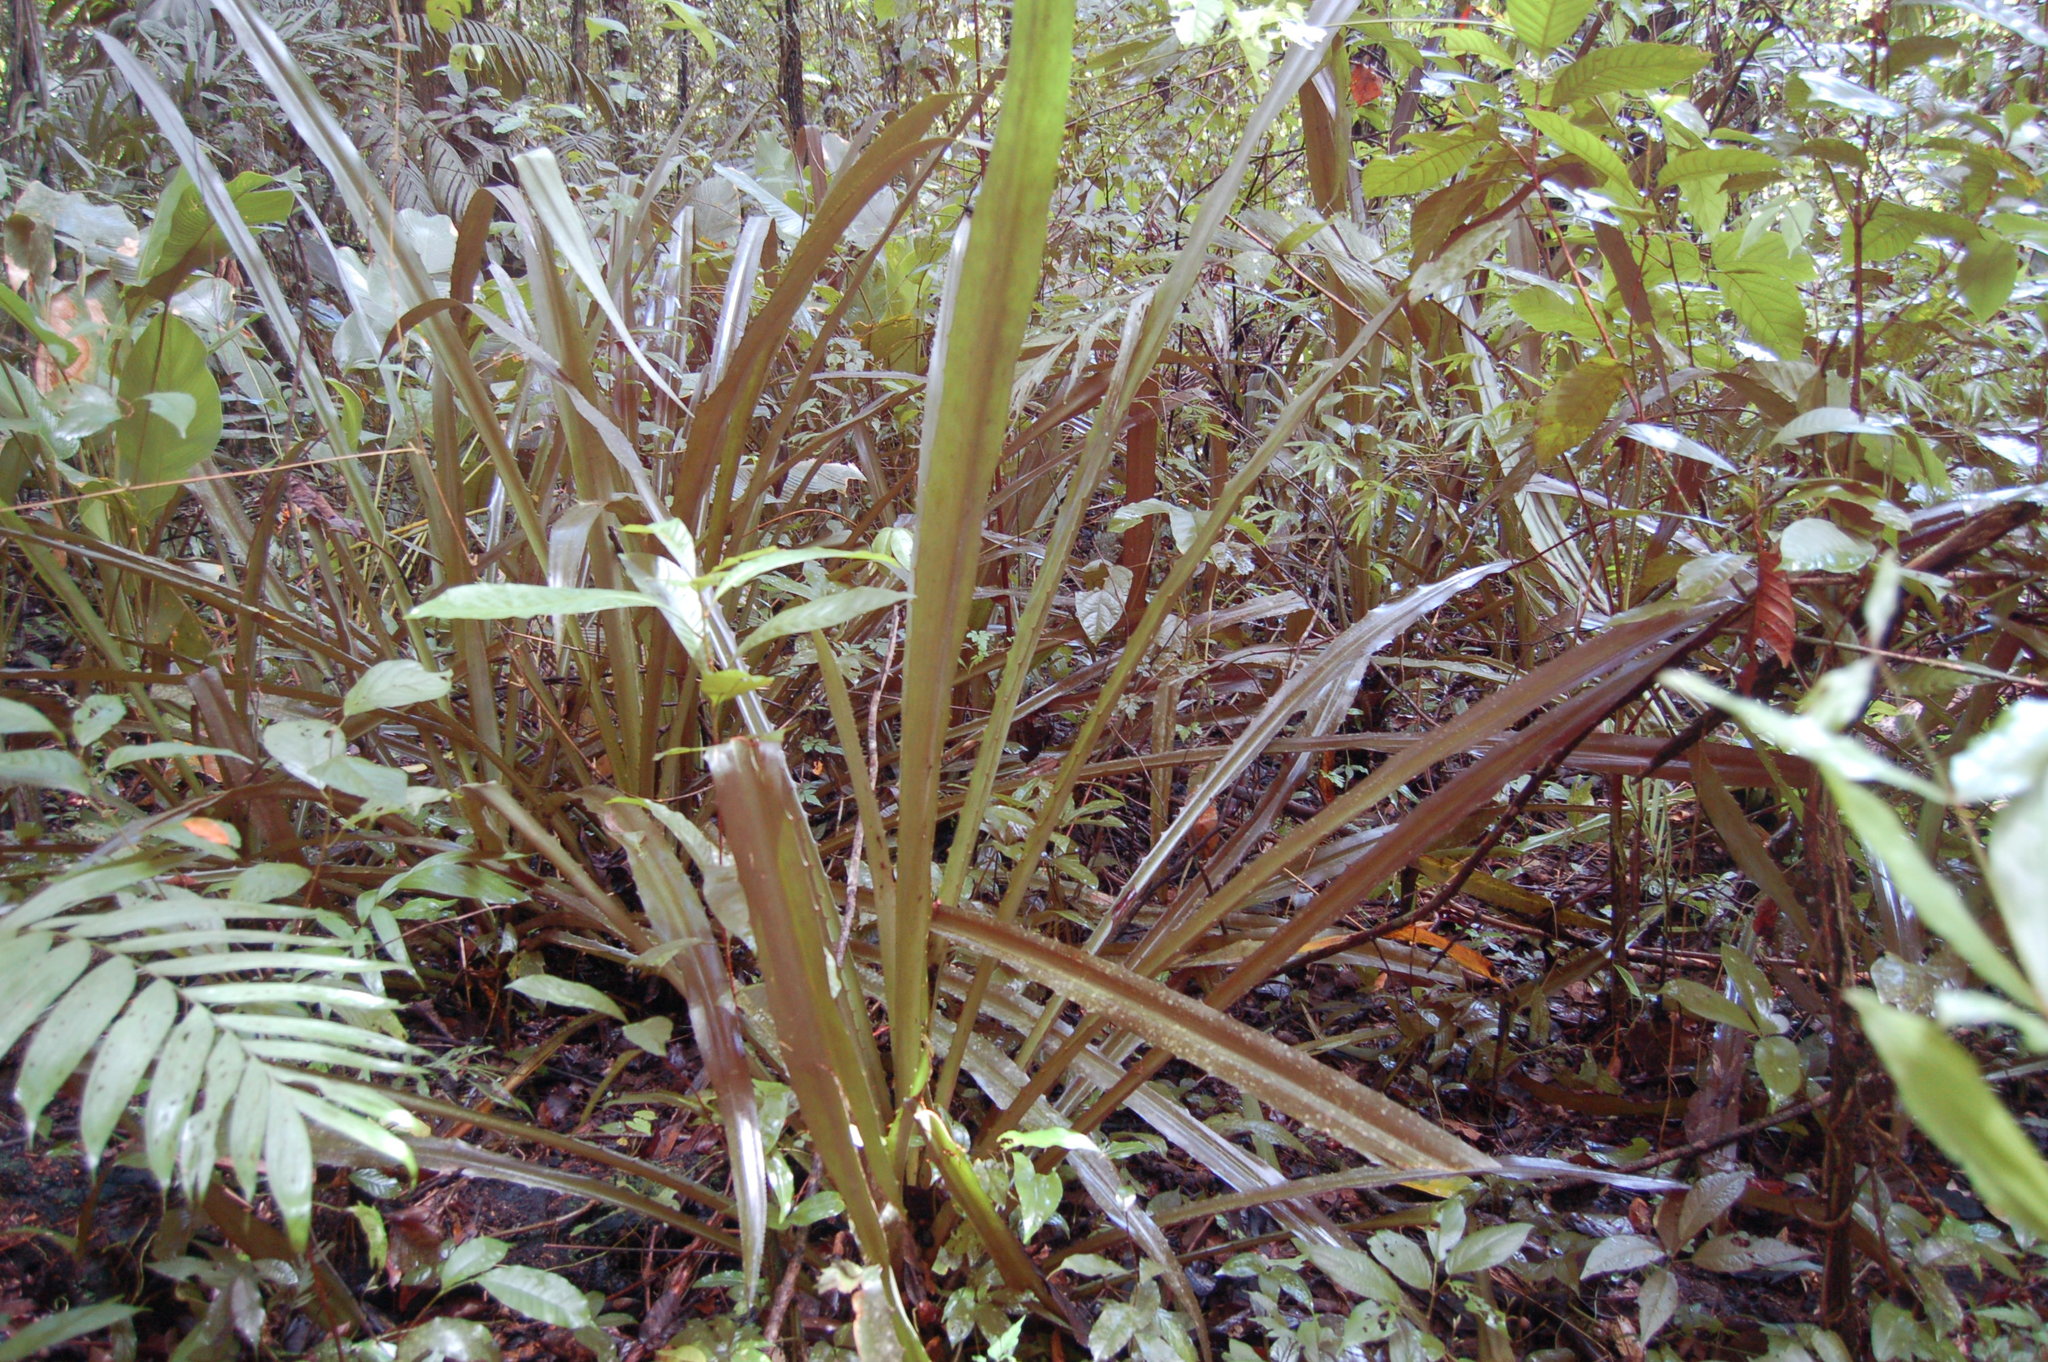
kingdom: Plantae
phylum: Tracheophyta
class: Liliopsida
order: Poales
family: Bromeliaceae
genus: Aechmea
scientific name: Aechmea magdalenae
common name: Arghan
